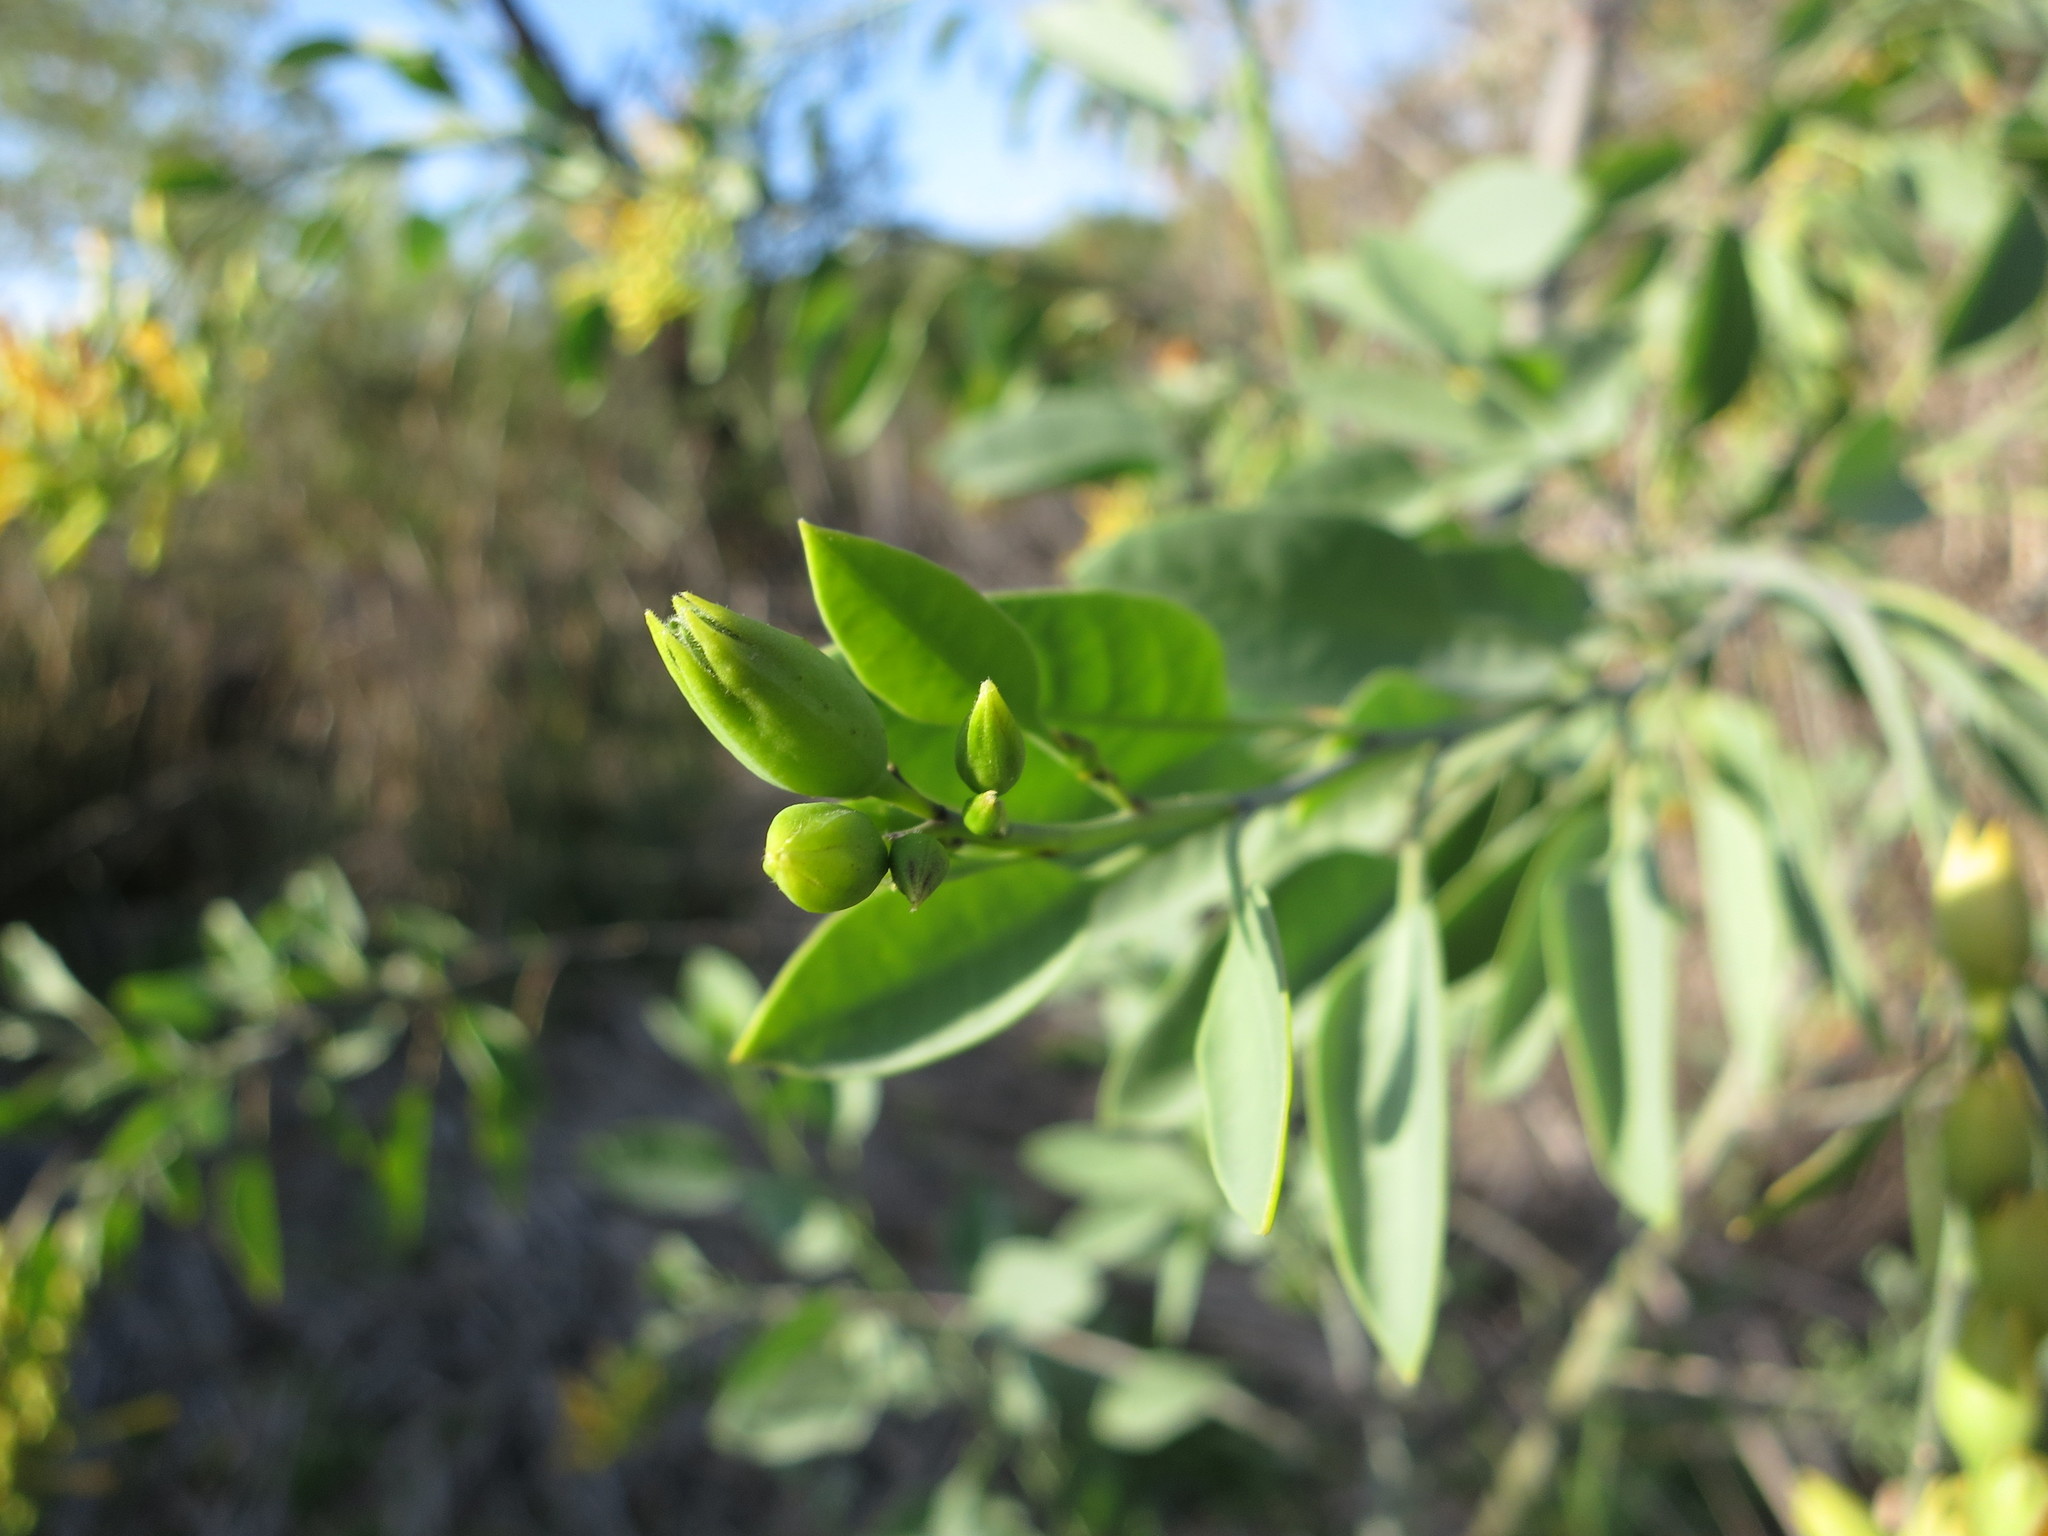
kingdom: Plantae
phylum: Tracheophyta
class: Magnoliopsida
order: Solanales
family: Solanaceae
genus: Nicotiana
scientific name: Nicotiana glauca
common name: Tree tobacco
